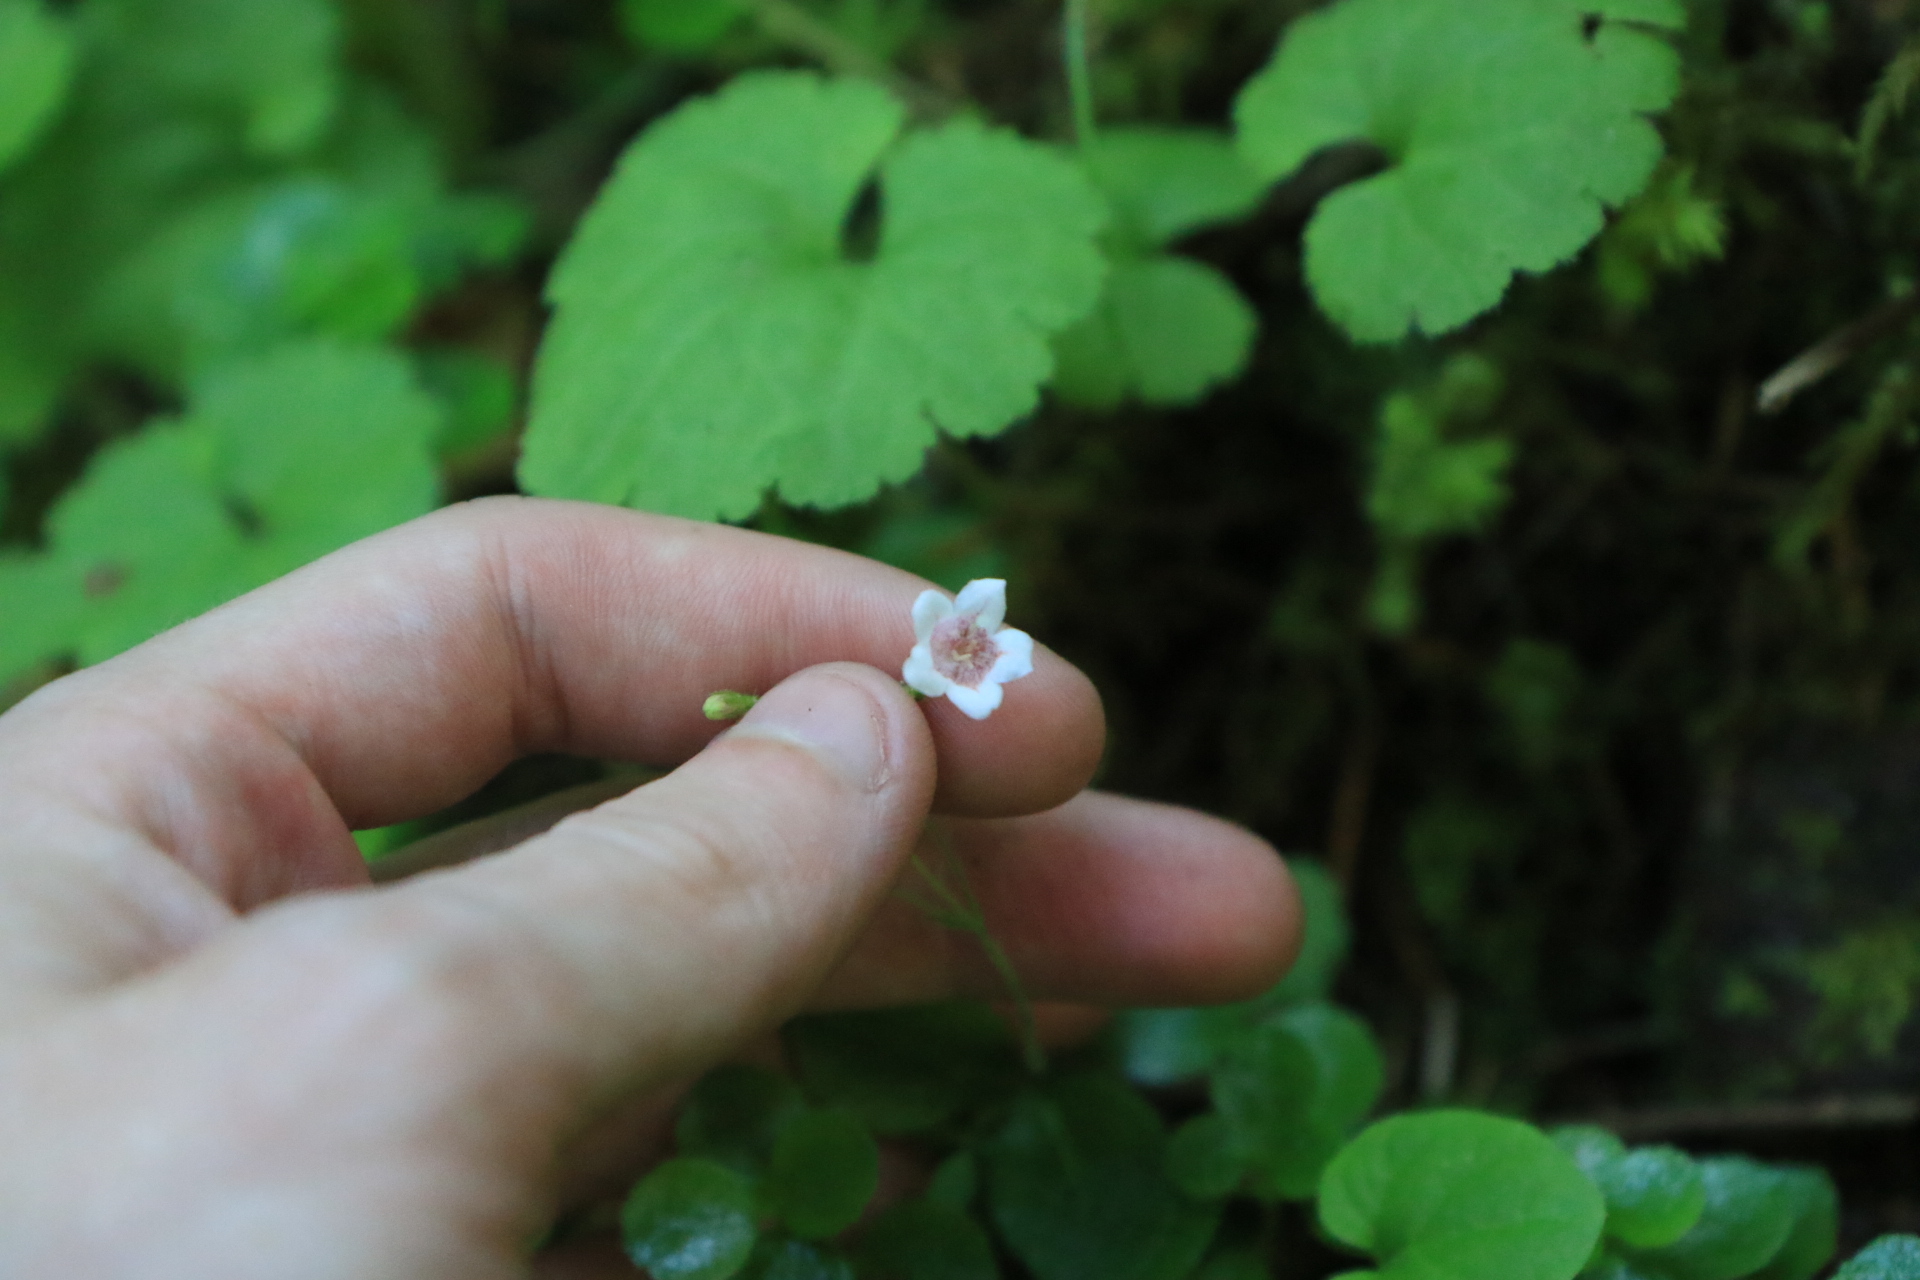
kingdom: Plantae
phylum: Tracheophyta
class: Magnoliopsida
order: Dipsacales
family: Caprifoliaceae
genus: Linnaea
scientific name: Linnaea borealis
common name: Twinflower
